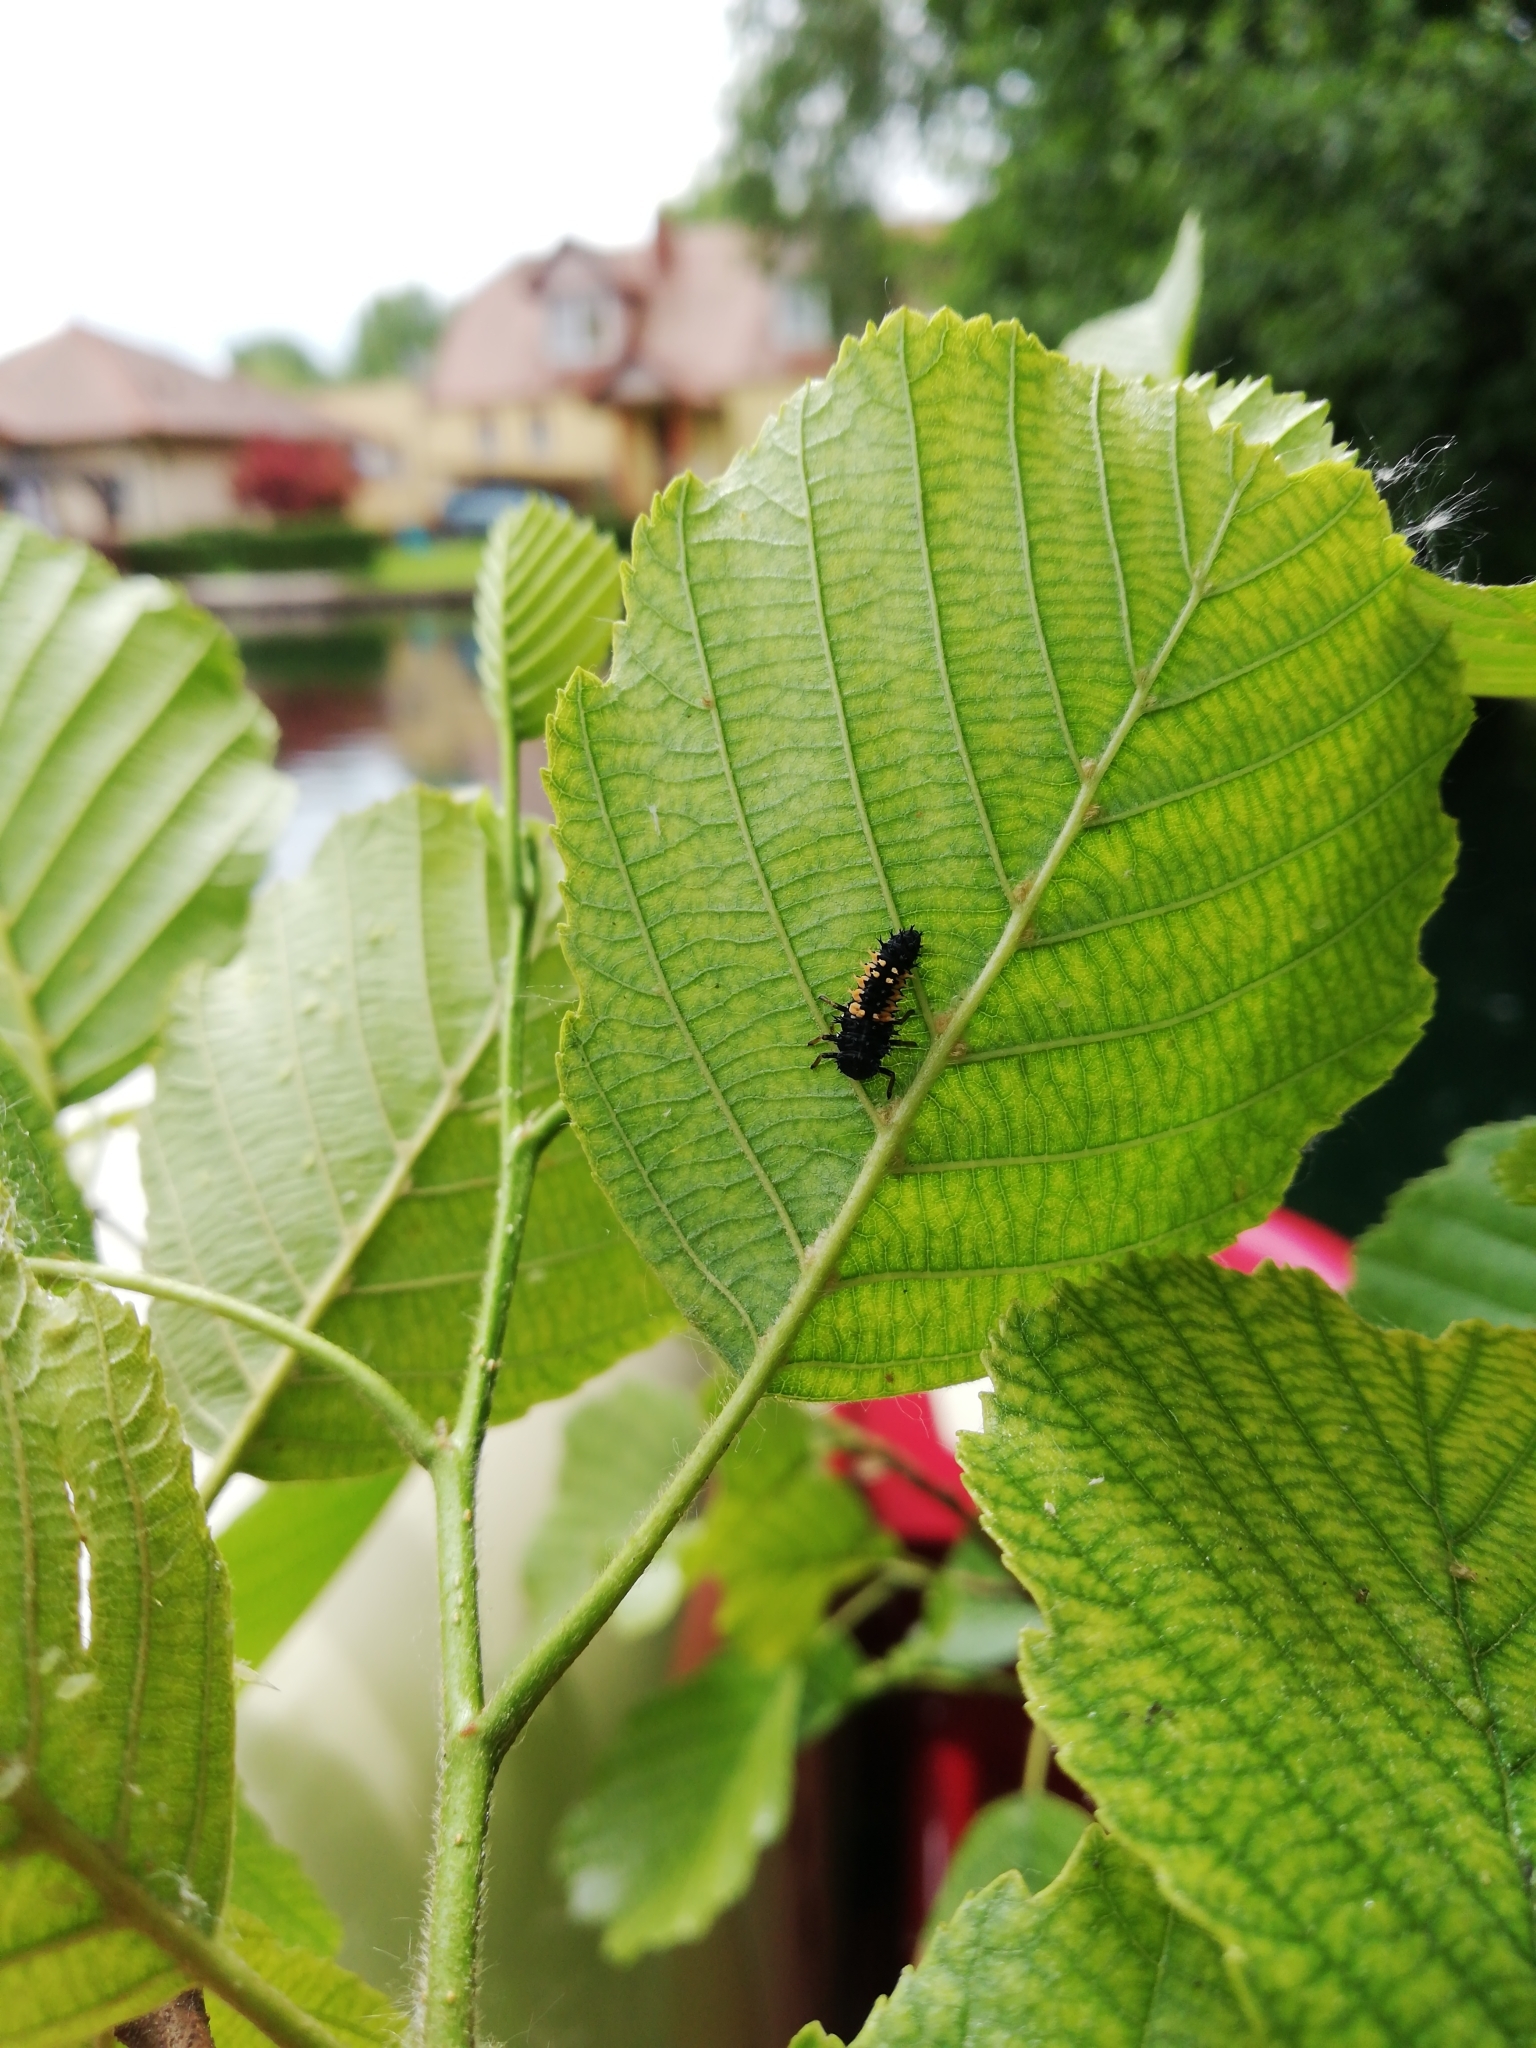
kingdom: Animalia
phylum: Arthropoda
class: Insecta
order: Coleoptera
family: Coccinellidae
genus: Harmonia
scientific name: Harmonia axyridis
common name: Harlequin ladybird
